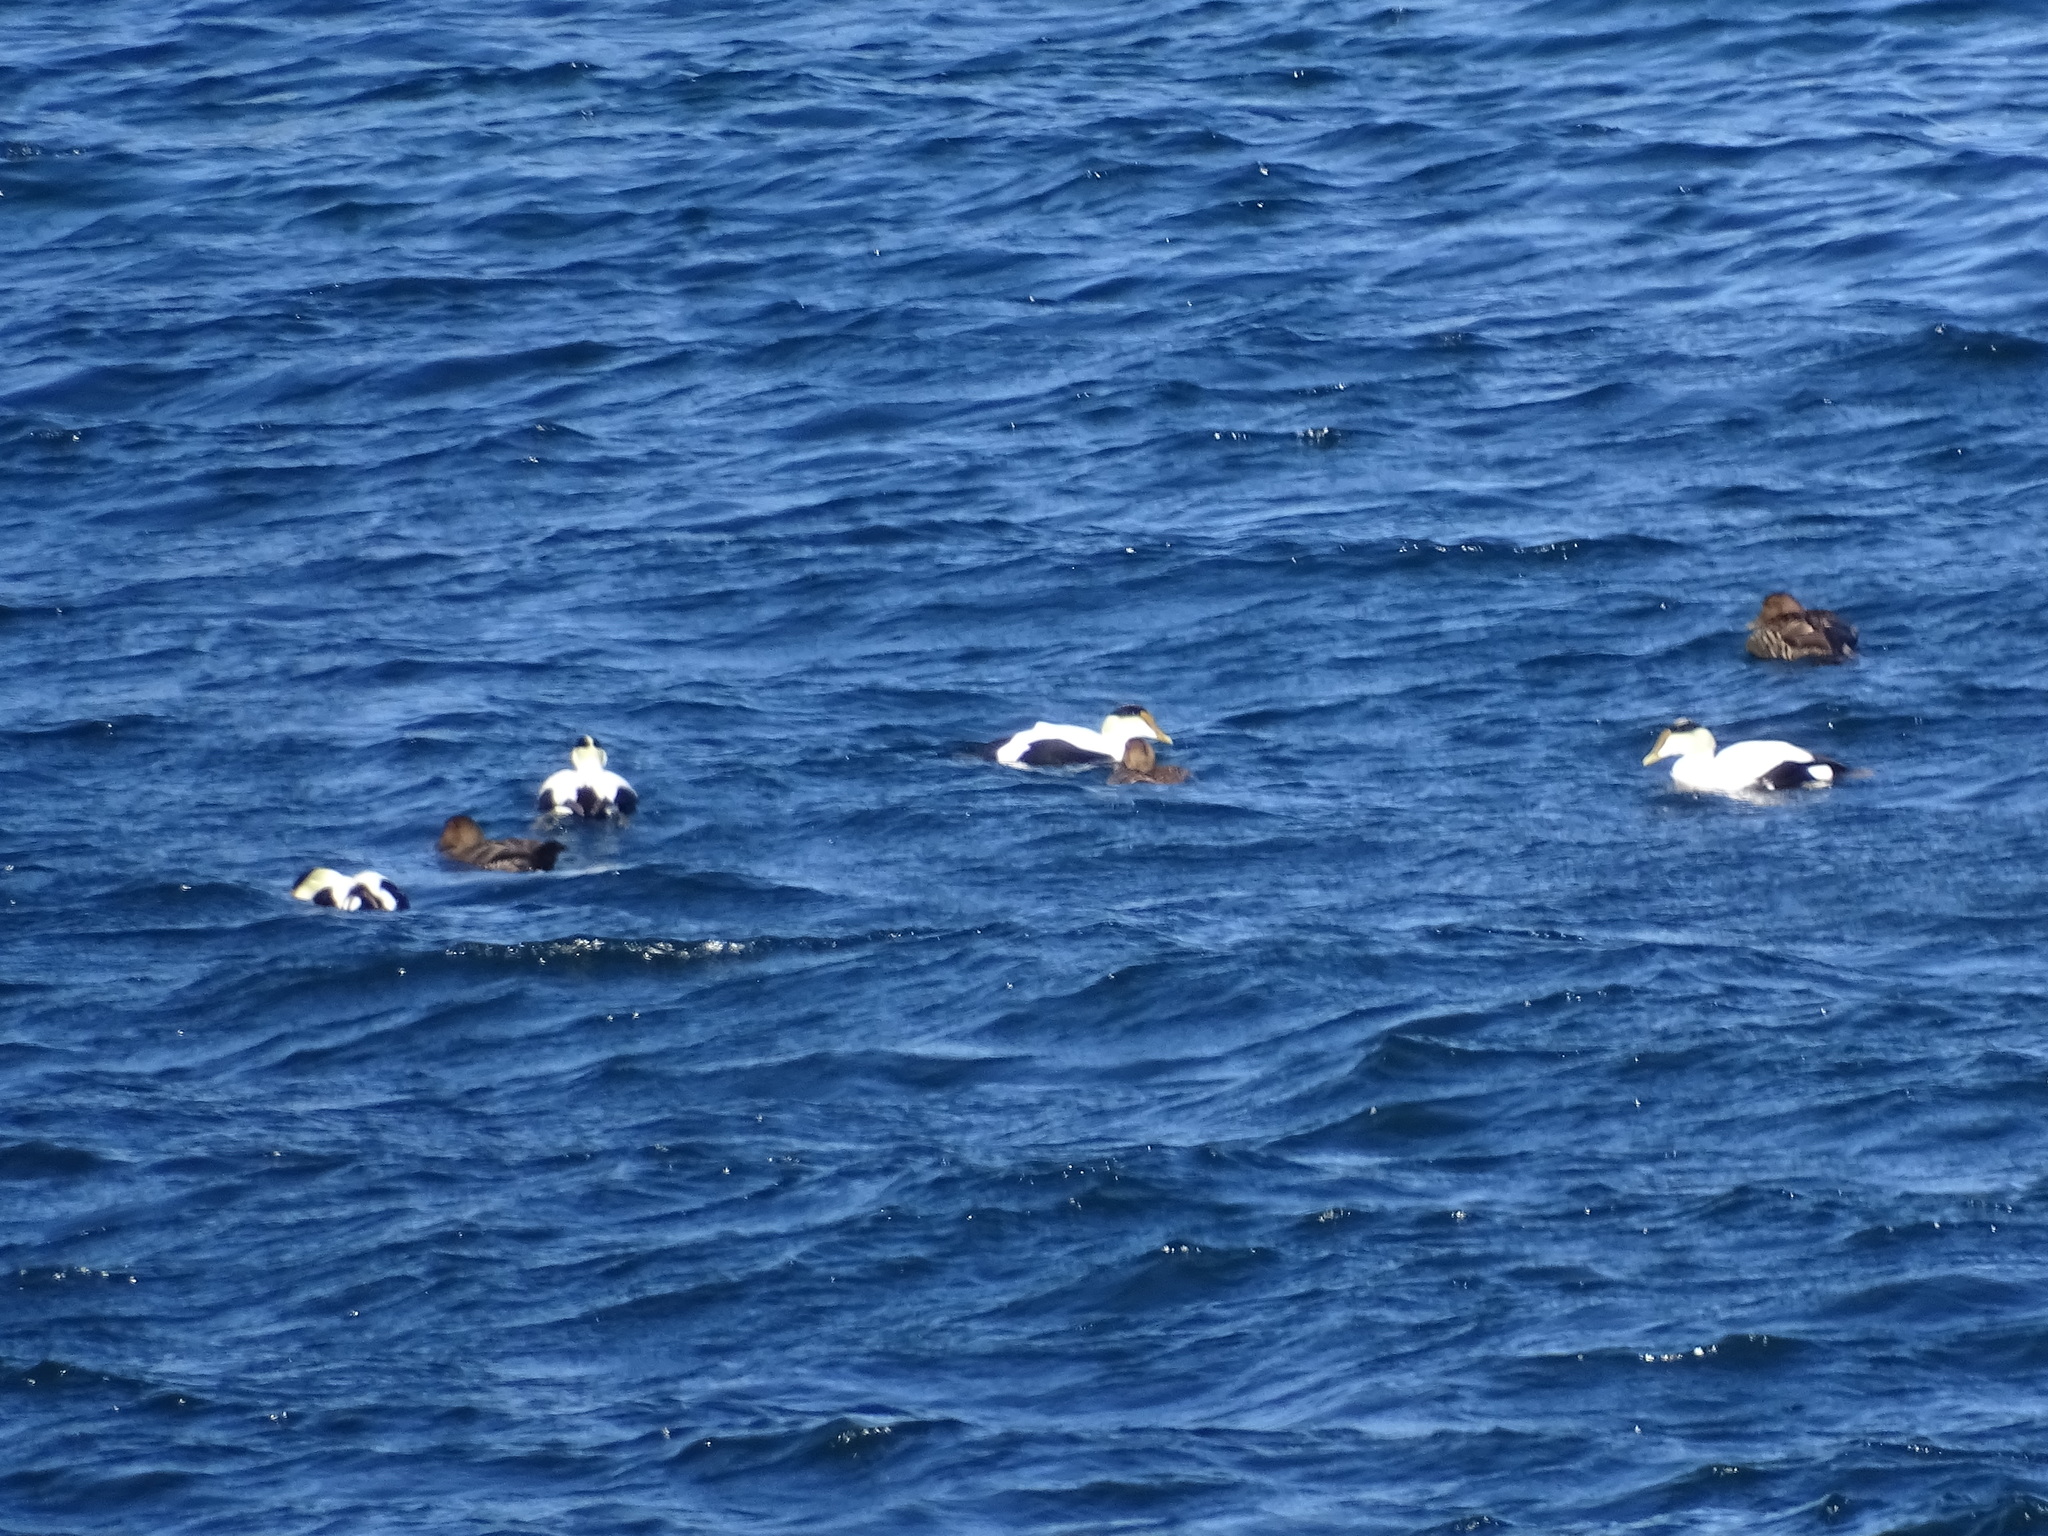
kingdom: Animalia
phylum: Chordata
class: Aves
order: Anseriformes
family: Anatidae
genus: Somateria
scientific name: Somateria mollissima
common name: Common eider
